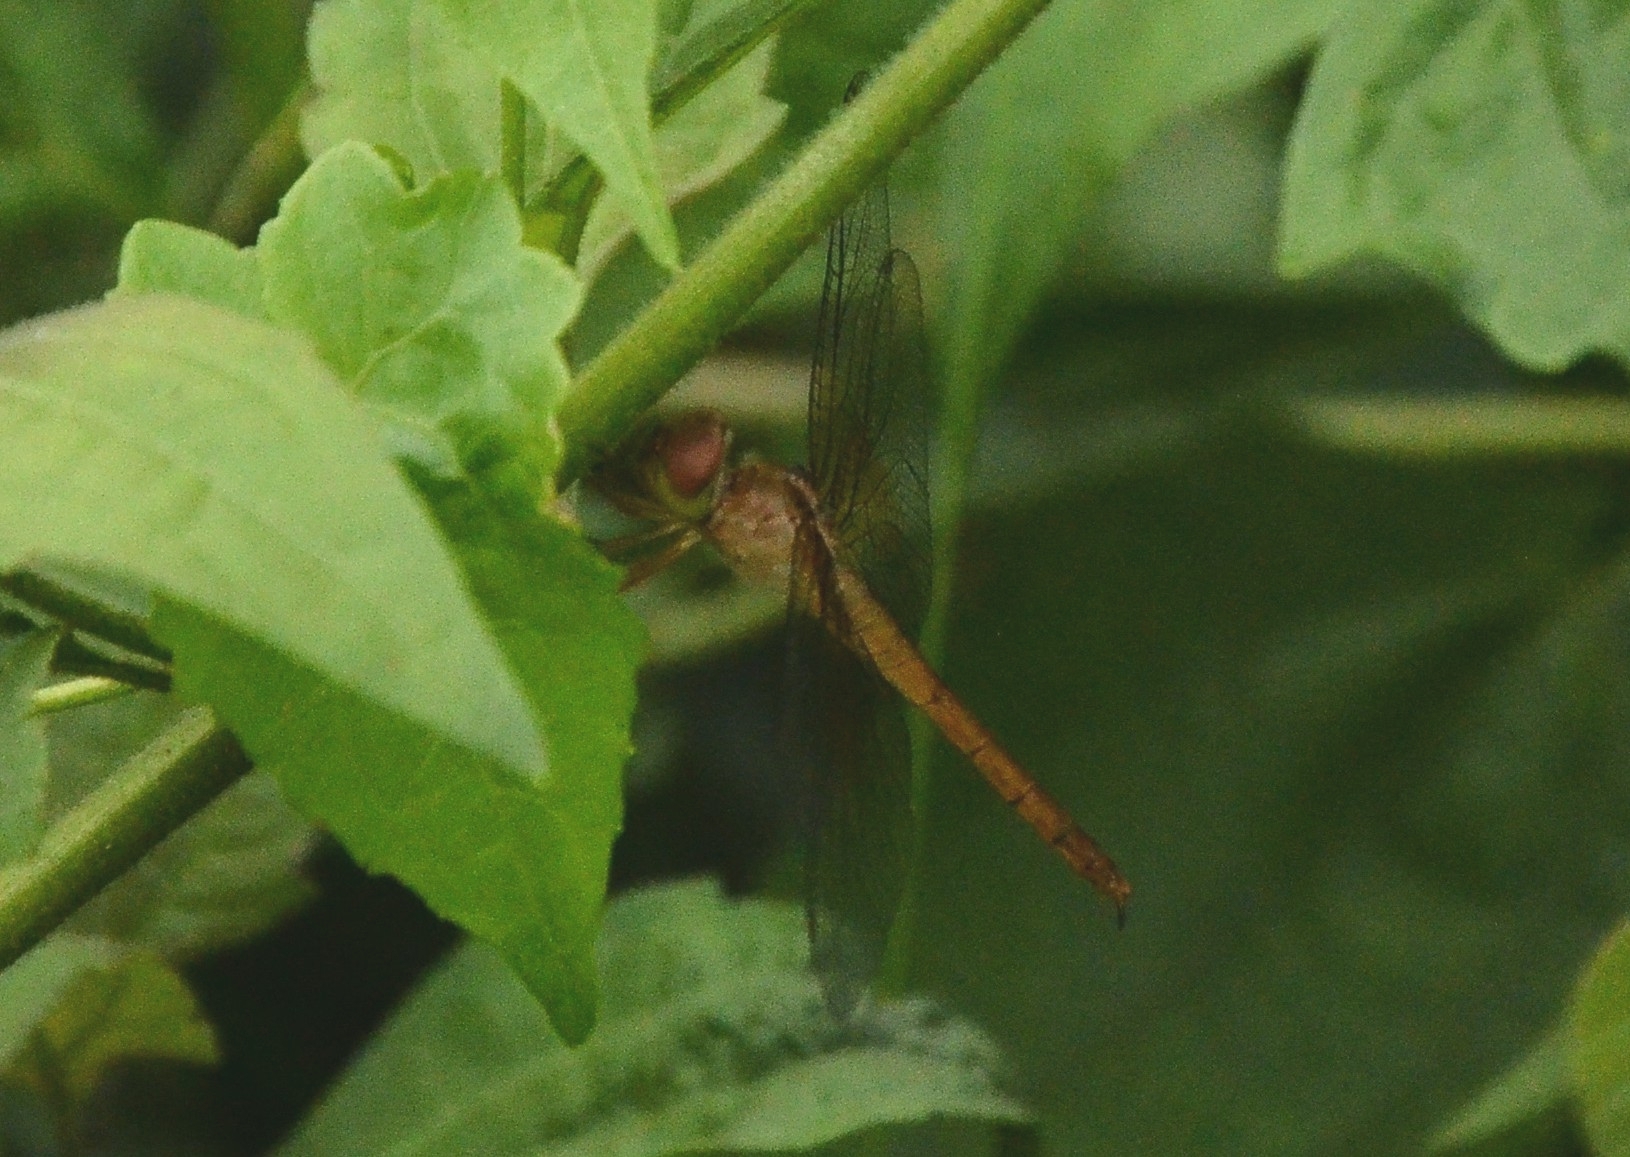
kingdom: Animalia
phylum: Arthropoda
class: Insecta
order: Odonata
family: Libellulidae
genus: Tholymis
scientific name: Tholymis tillarga
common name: Coral-tailed cloud wing
